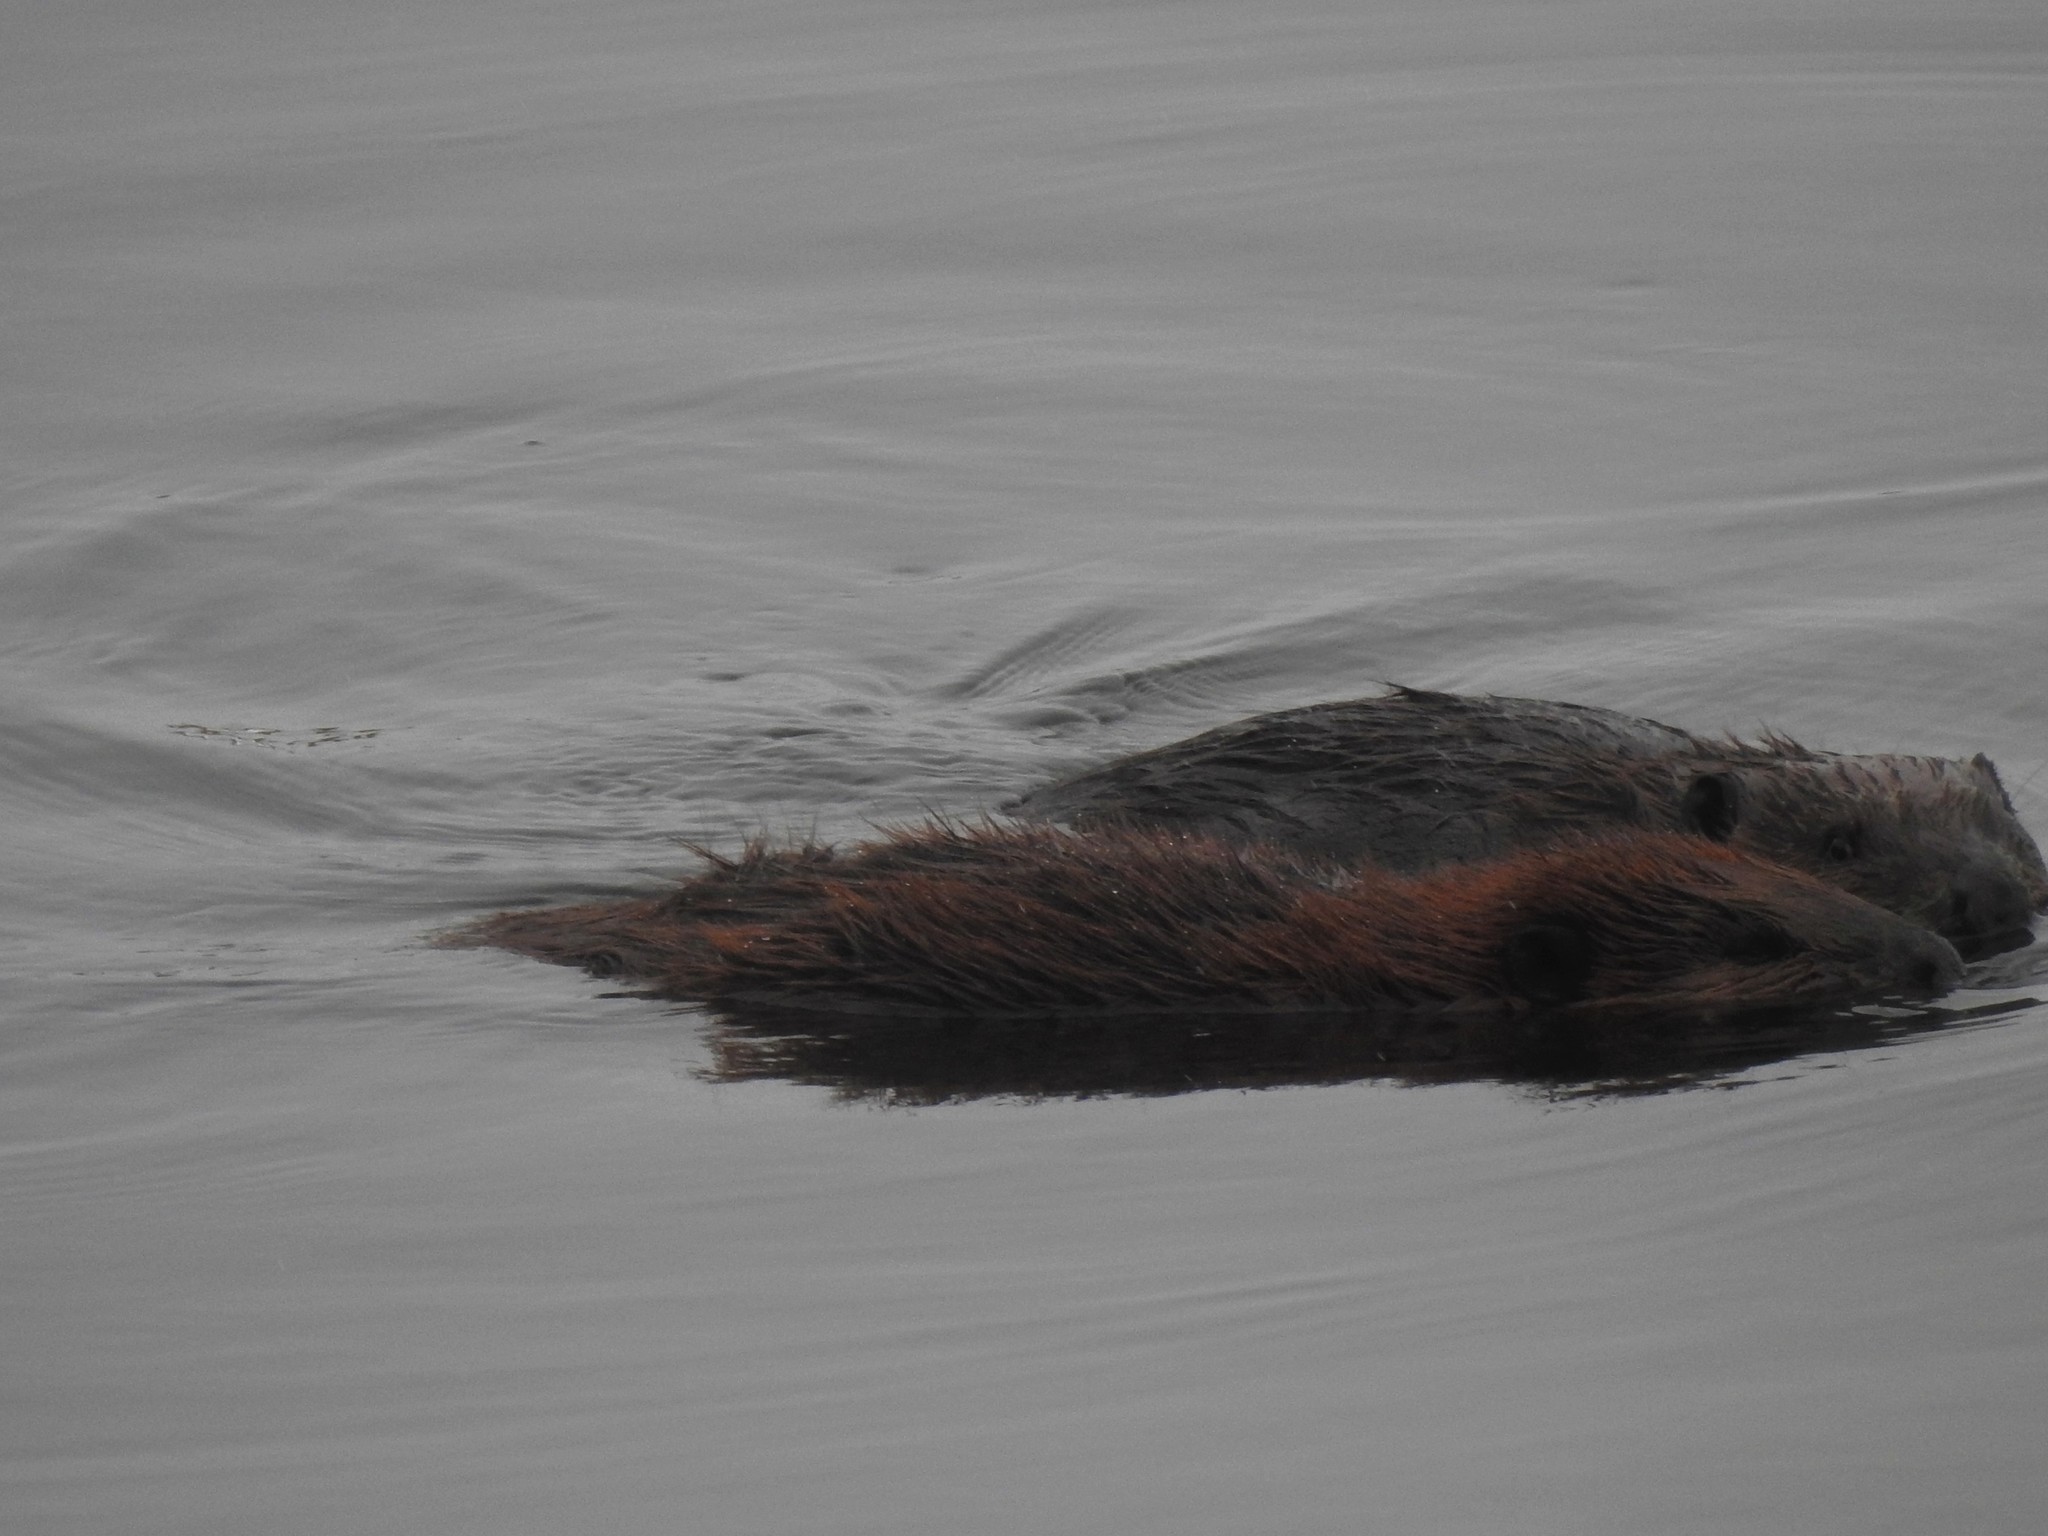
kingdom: Animalia
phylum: Chordata
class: Mammalia
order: Rodentia
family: Castoridae
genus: Castor
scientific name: Castor canadensis
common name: American beaver
